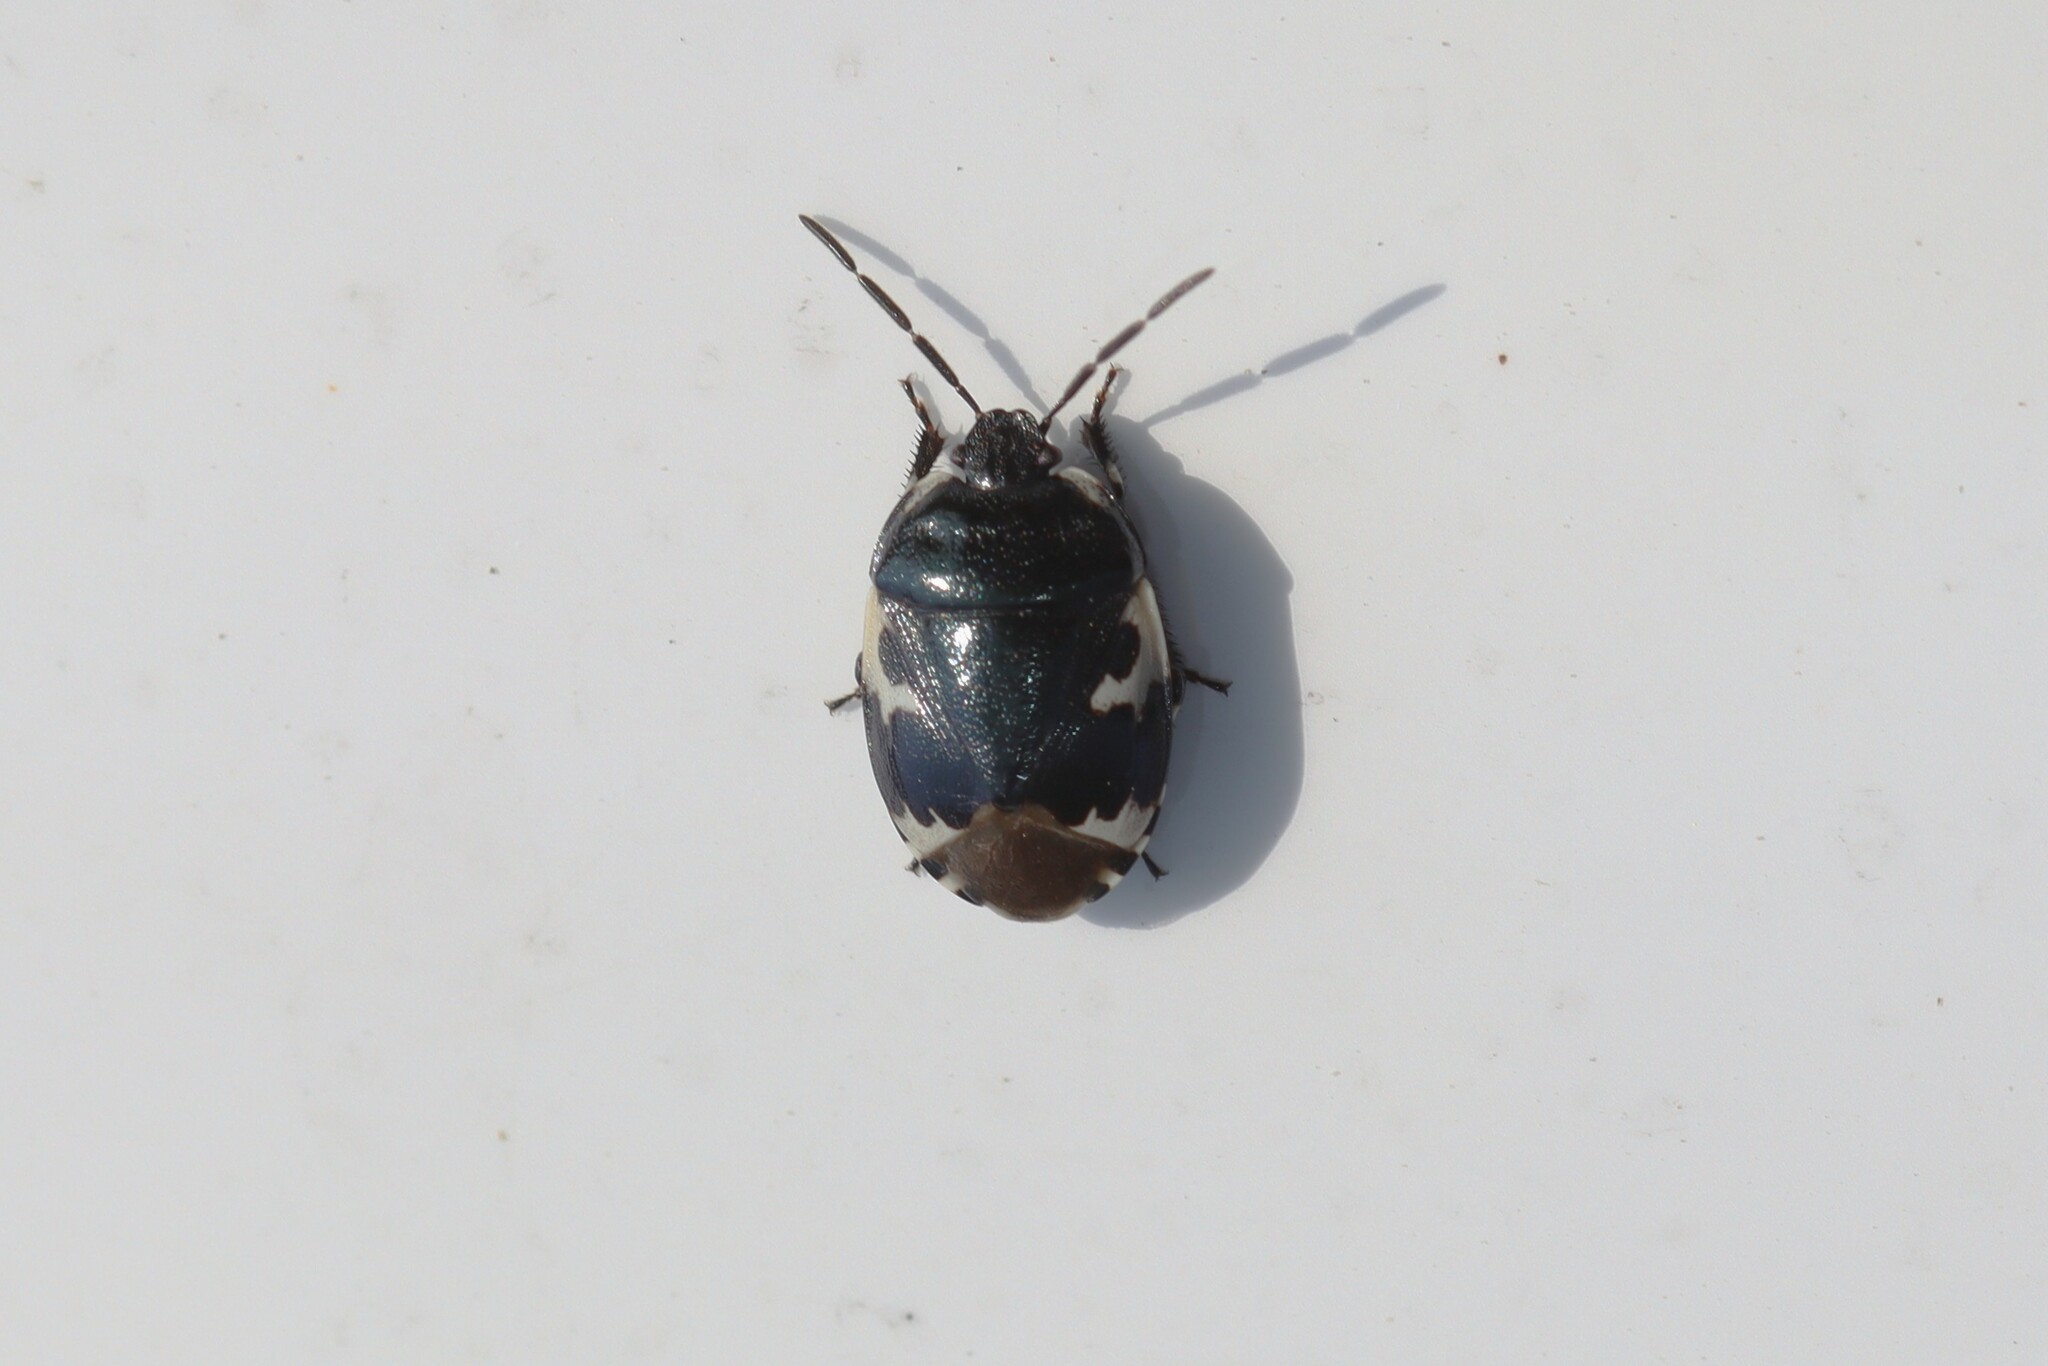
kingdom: Animalia
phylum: Arthropoda
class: Insecta
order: Hemiptera
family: Cydnidae
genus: Tritomegas
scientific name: Tritomegas bicolor
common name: Pied shieldbug
